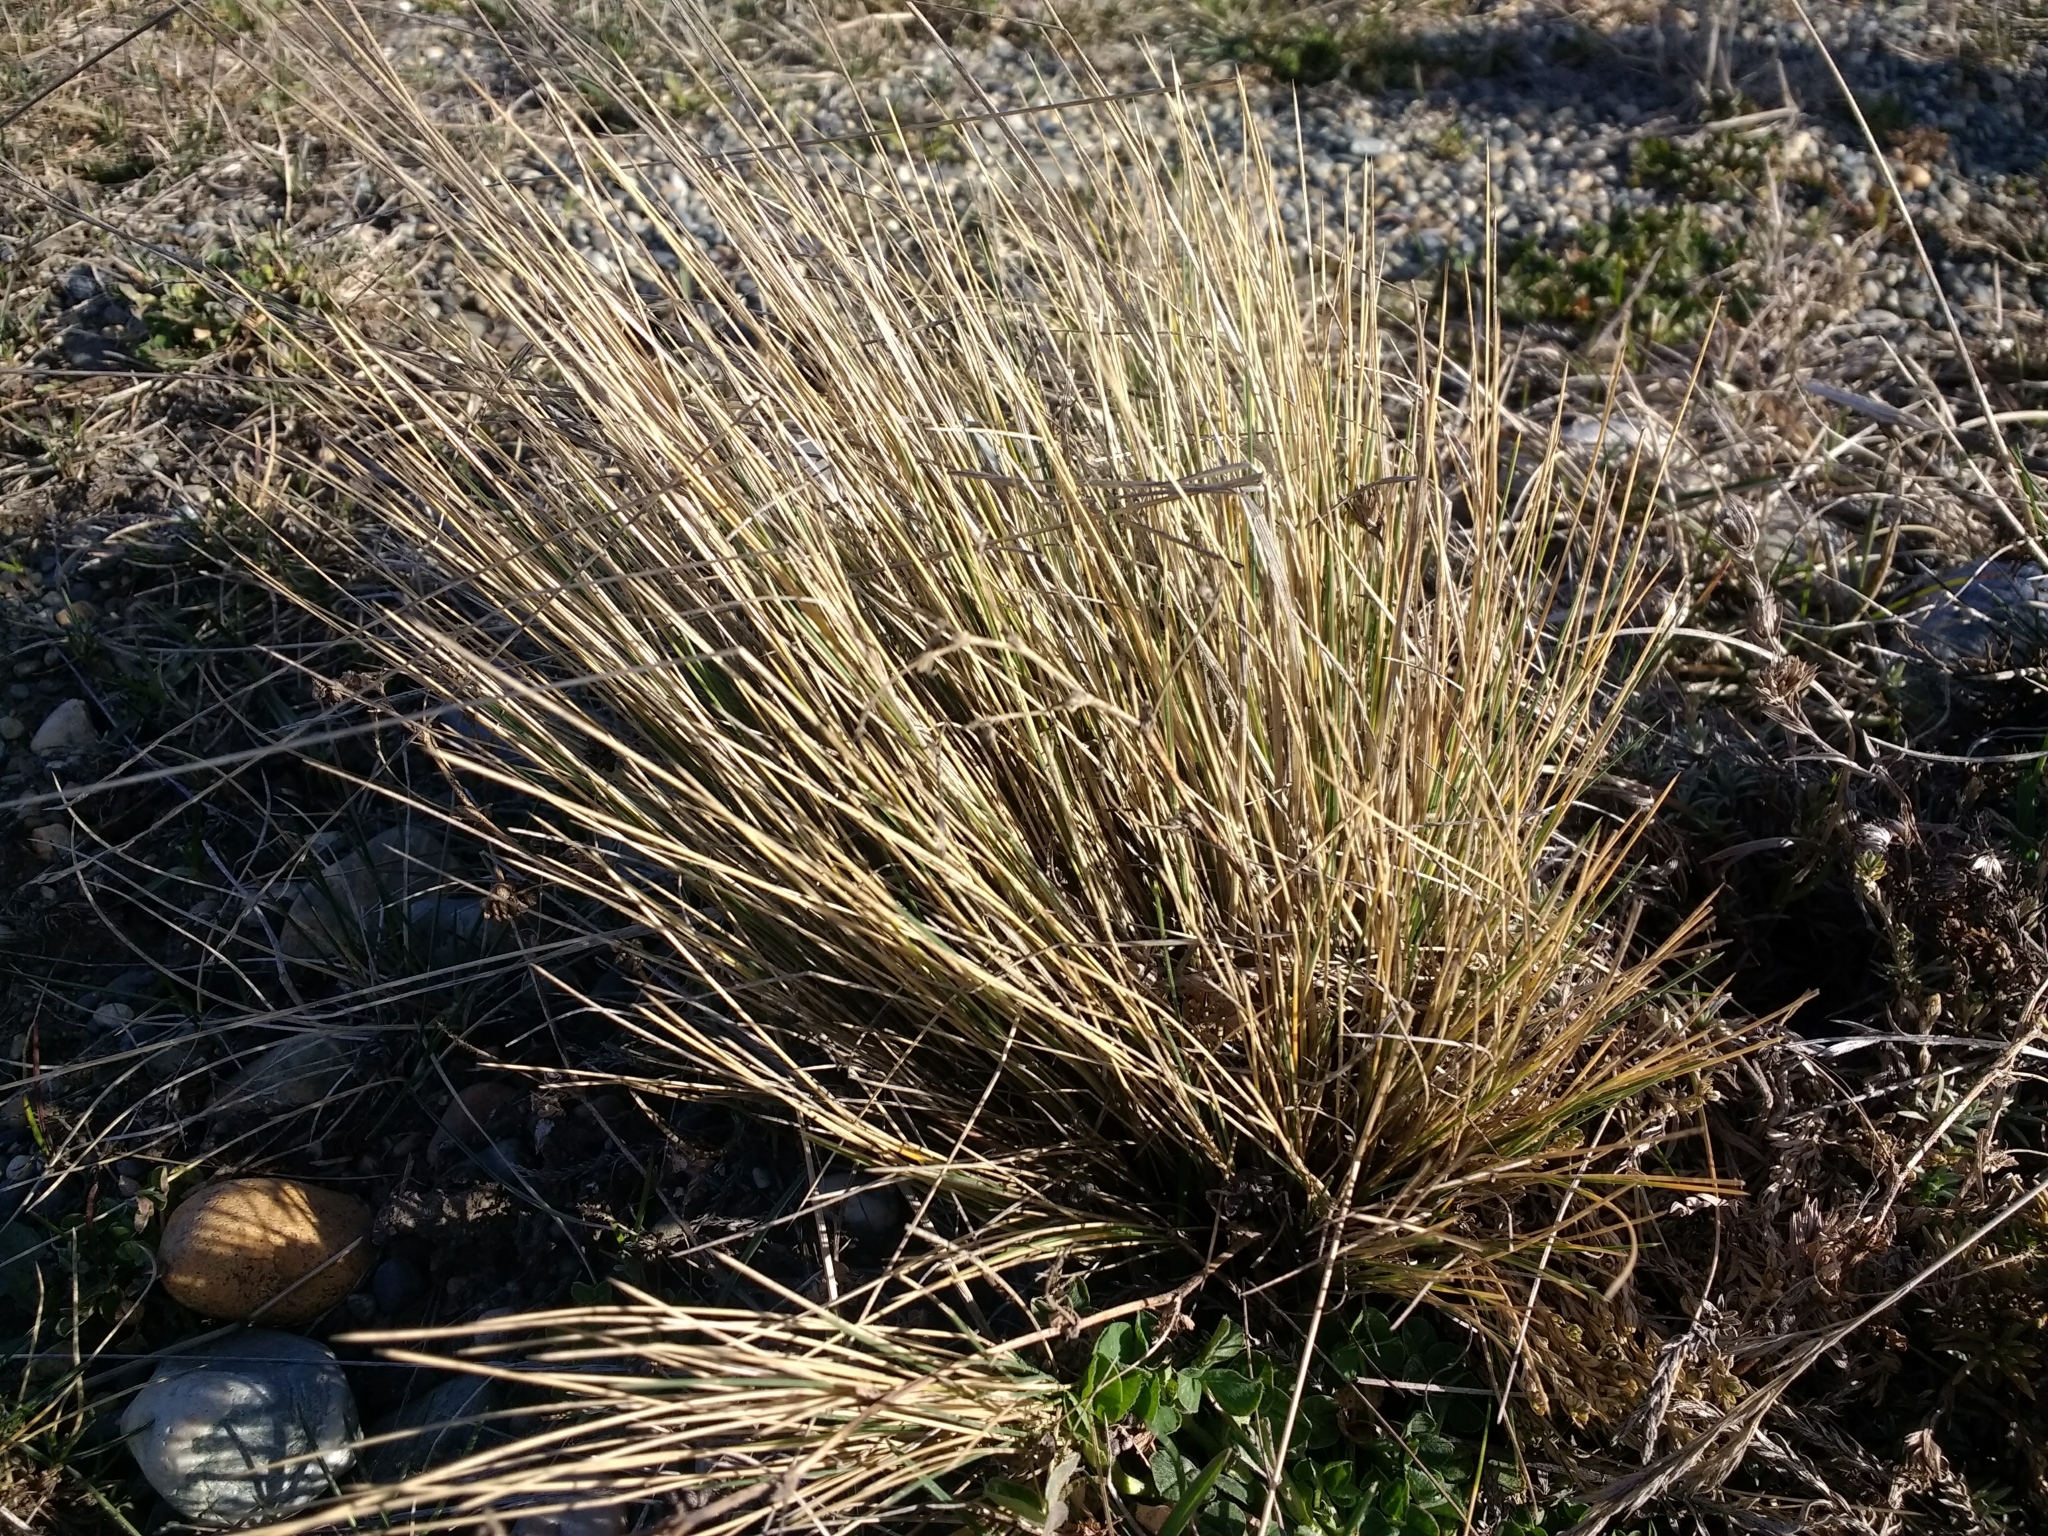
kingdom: Plantae
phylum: Tracheophyta
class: Liliopsida
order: Poales
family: Poaceae
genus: Festuca
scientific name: Festuca gracillima
